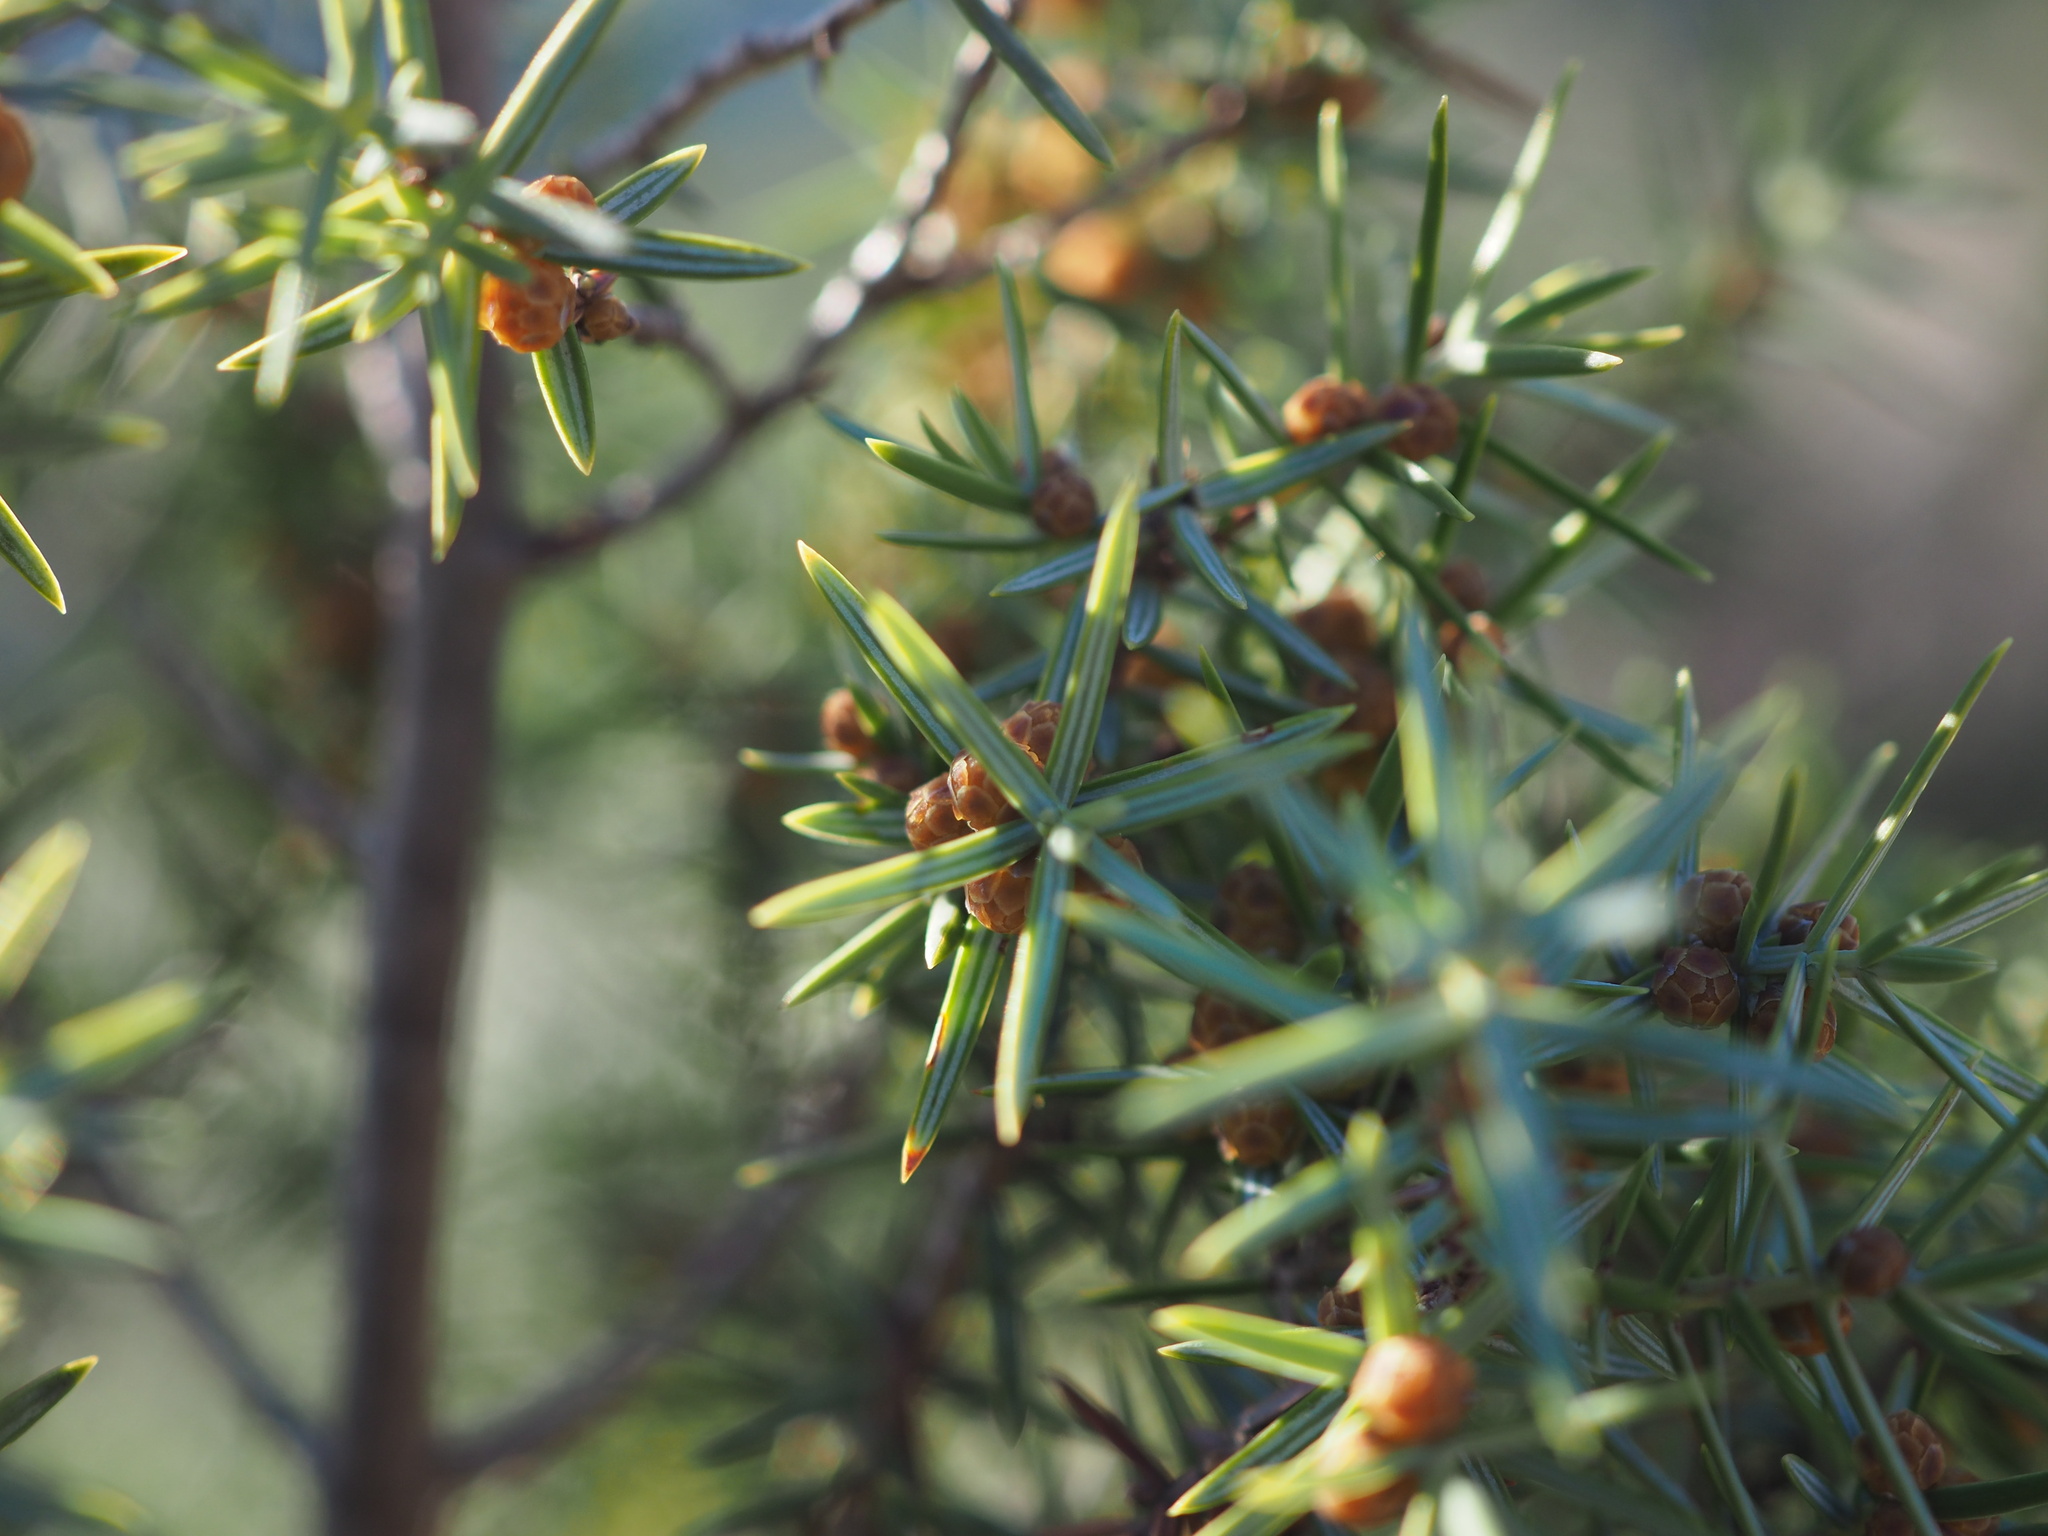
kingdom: Plantae
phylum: Tracheophyta
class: Pinopsida
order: Pinales
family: Cupressaceae
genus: Juniperus
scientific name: Juniperus oxycedrus
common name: Prickly juniper
